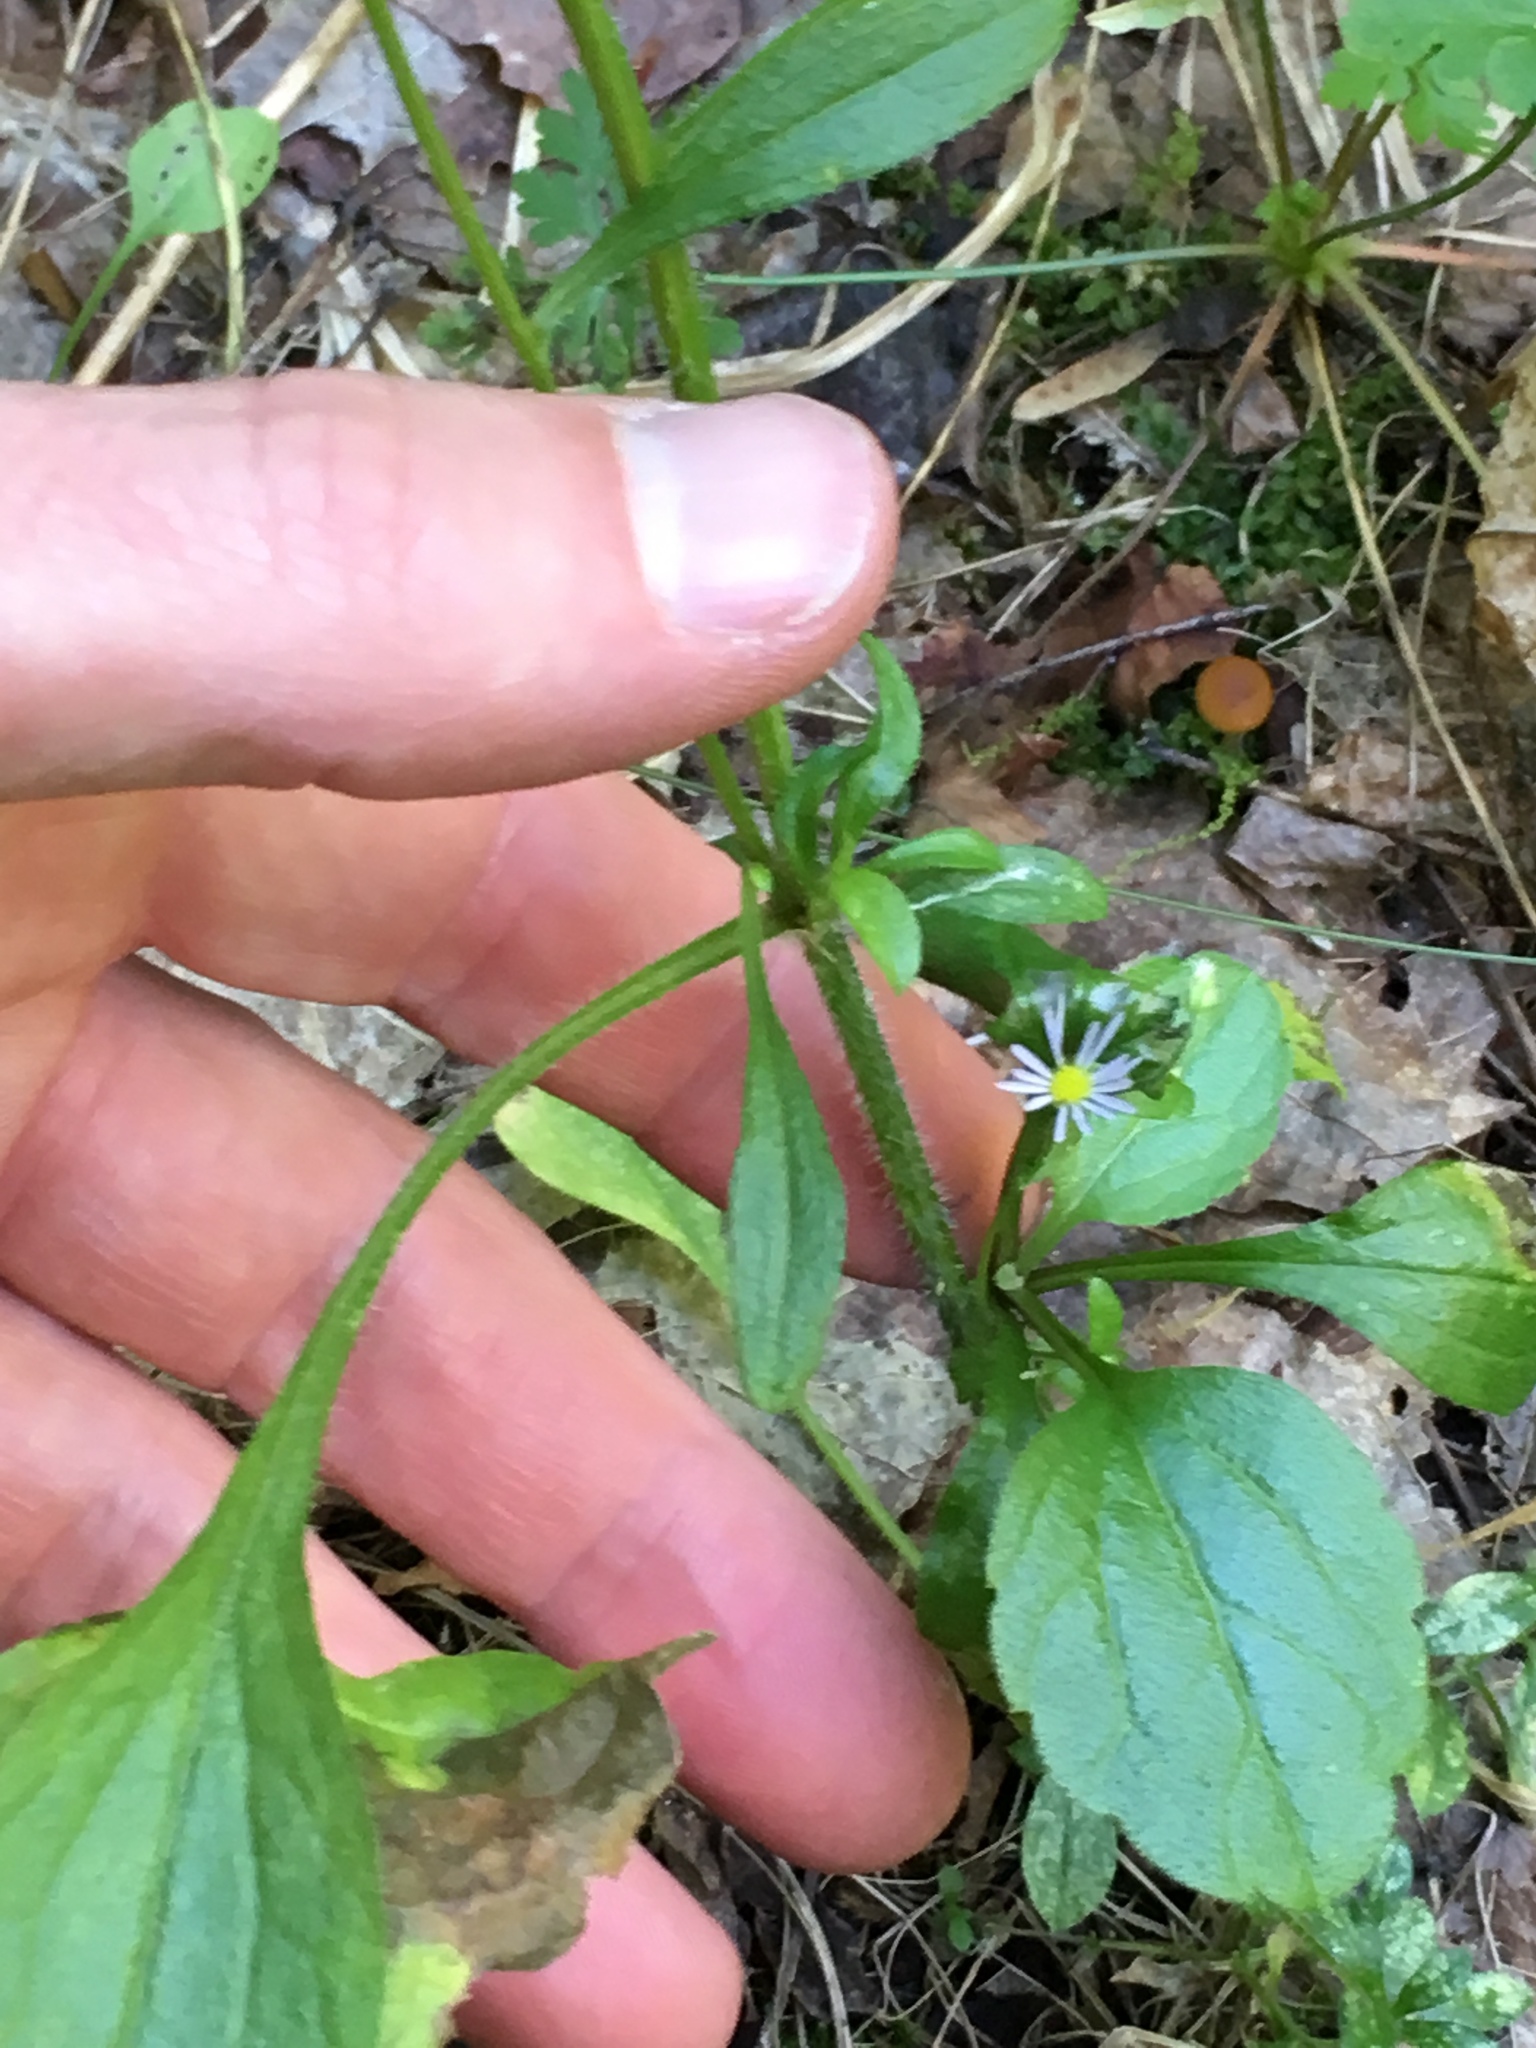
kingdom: Plantae
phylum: Tracheophyta
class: Magnoliopsida
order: Asterales
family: Asteraceae
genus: Erigeron
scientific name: Erigeron annuus
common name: Tall fleabane
